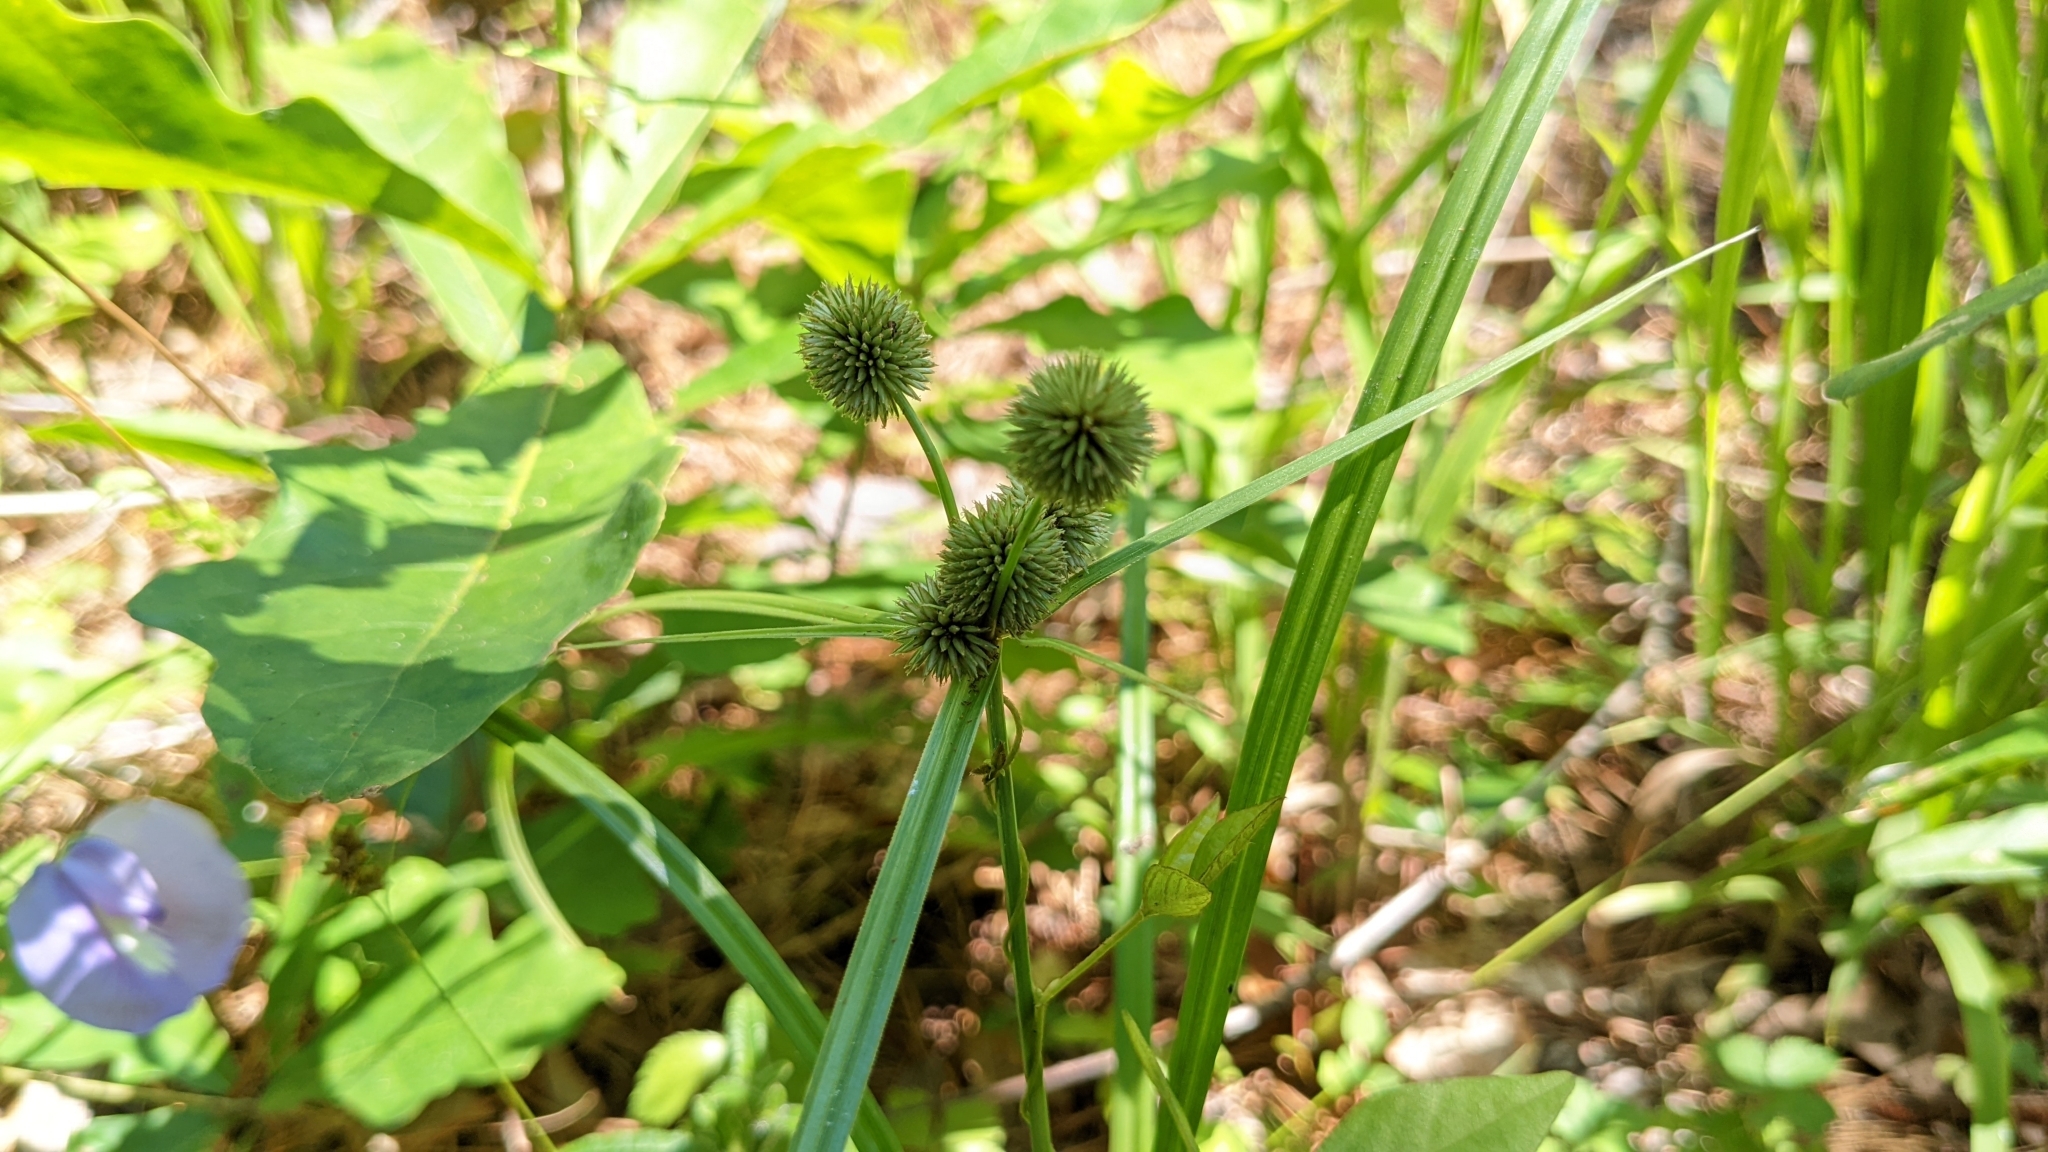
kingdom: Plantae
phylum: Tracheophyta
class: Liliopsida
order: Poales
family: Cyperaceae
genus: Cyperus
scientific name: Cyperus echinatus
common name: Teasel sedge
